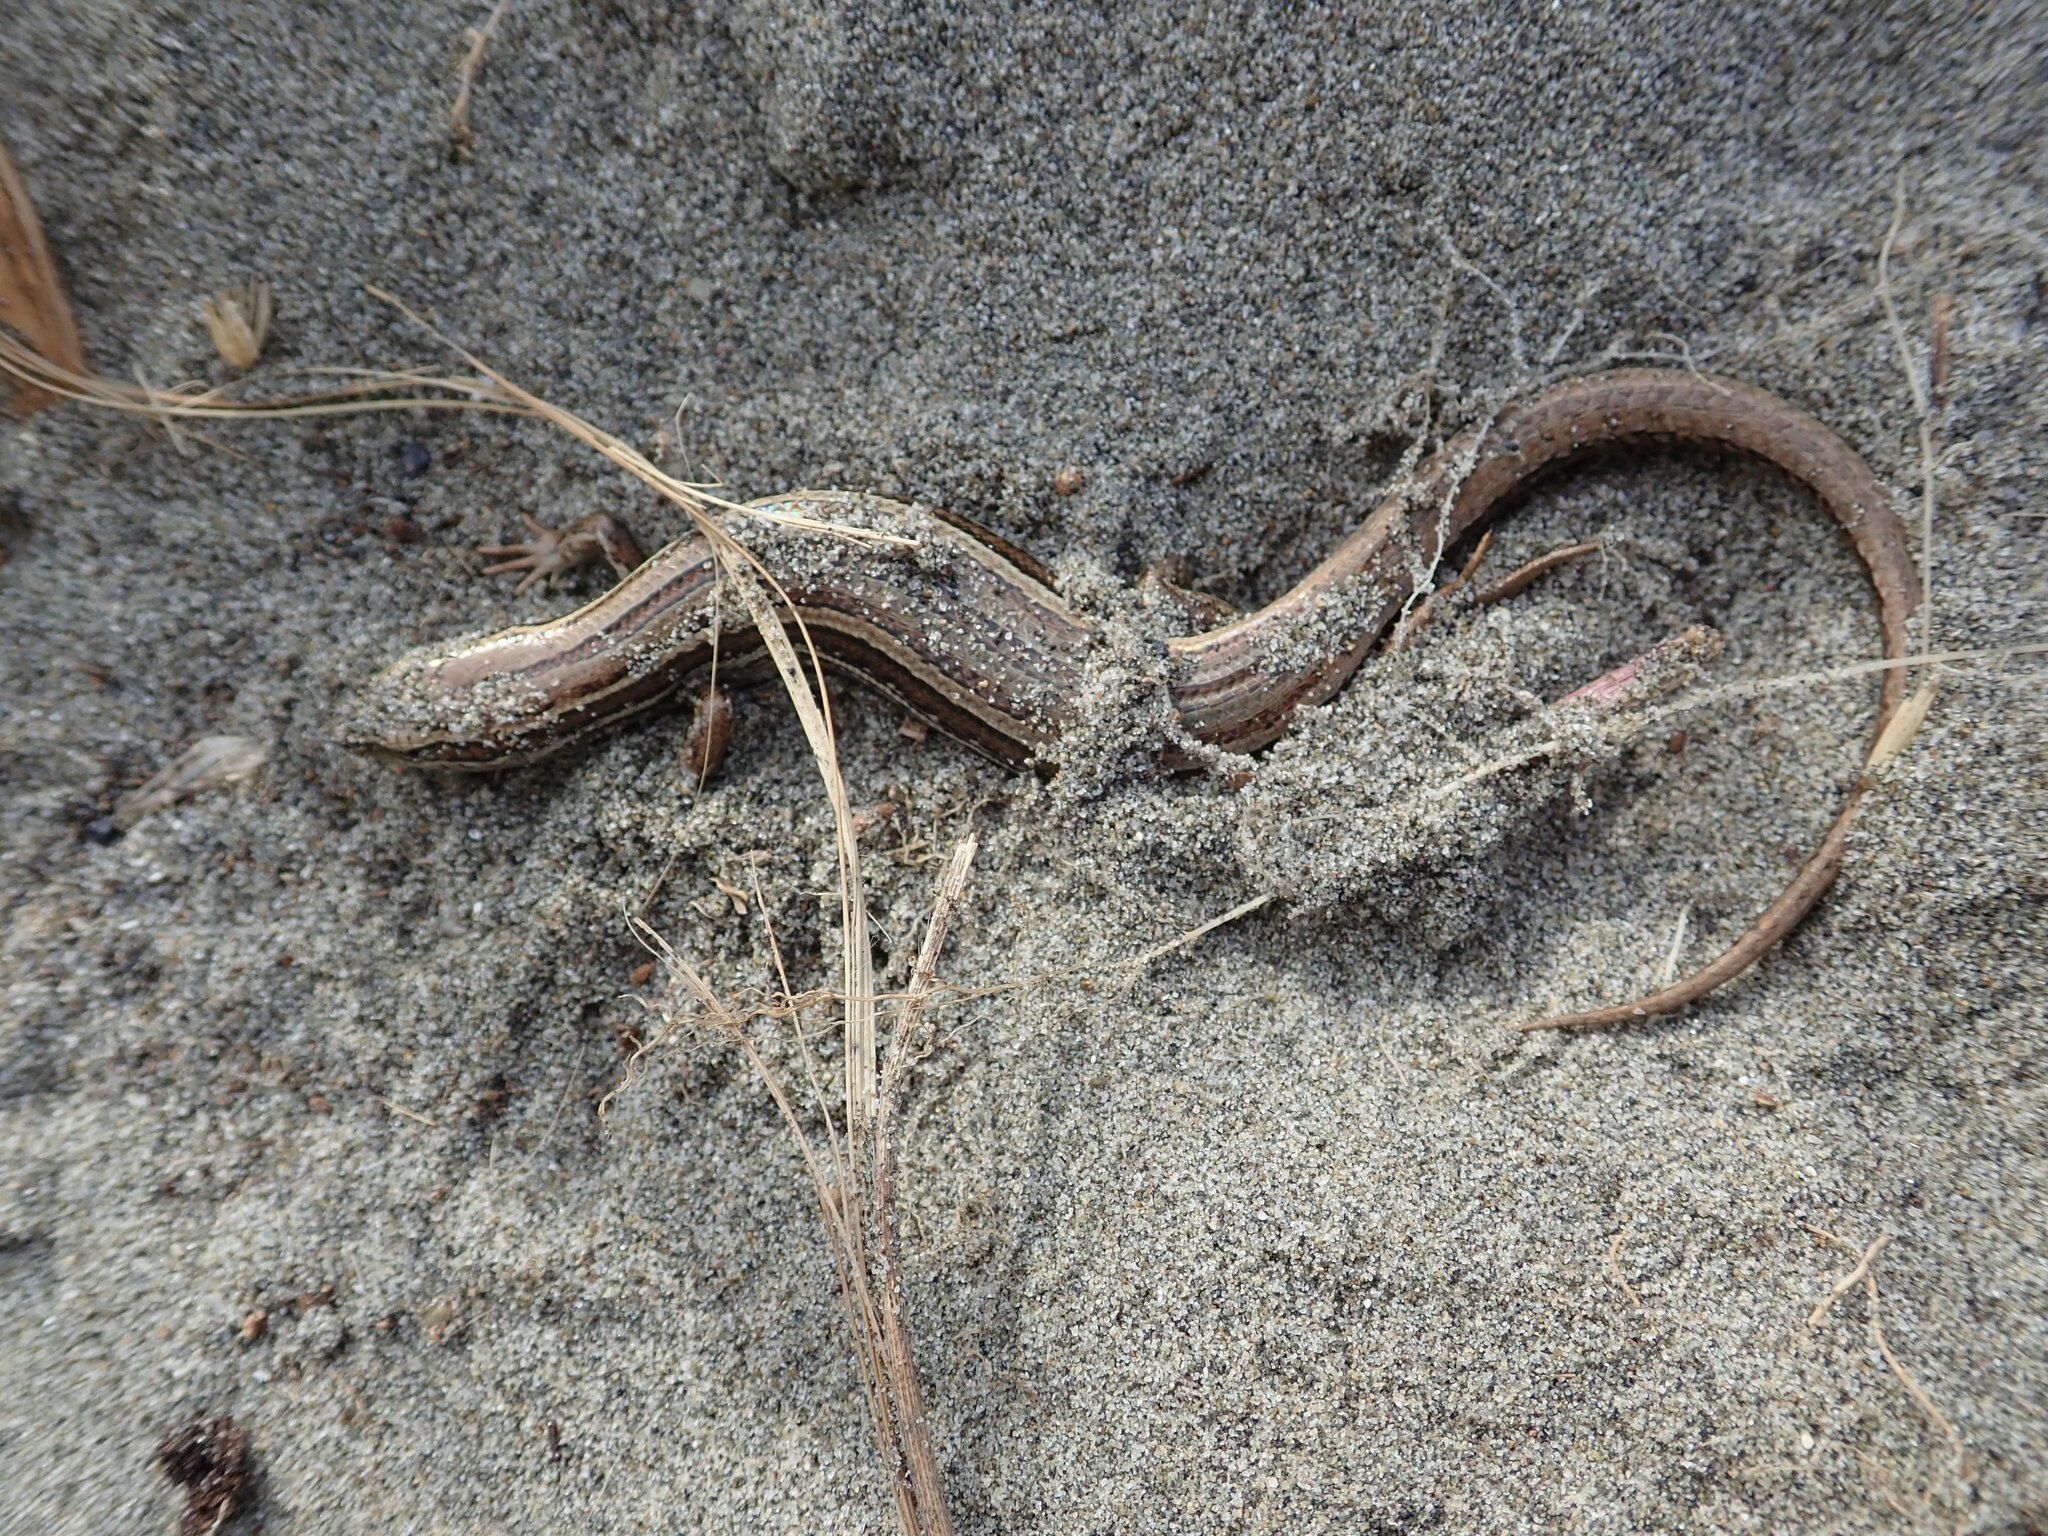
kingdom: Animalia
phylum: Chordata
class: Squamata
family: Scincidae
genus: Oligosoma
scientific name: Oligosoma polychroma
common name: Common new zealand skink
